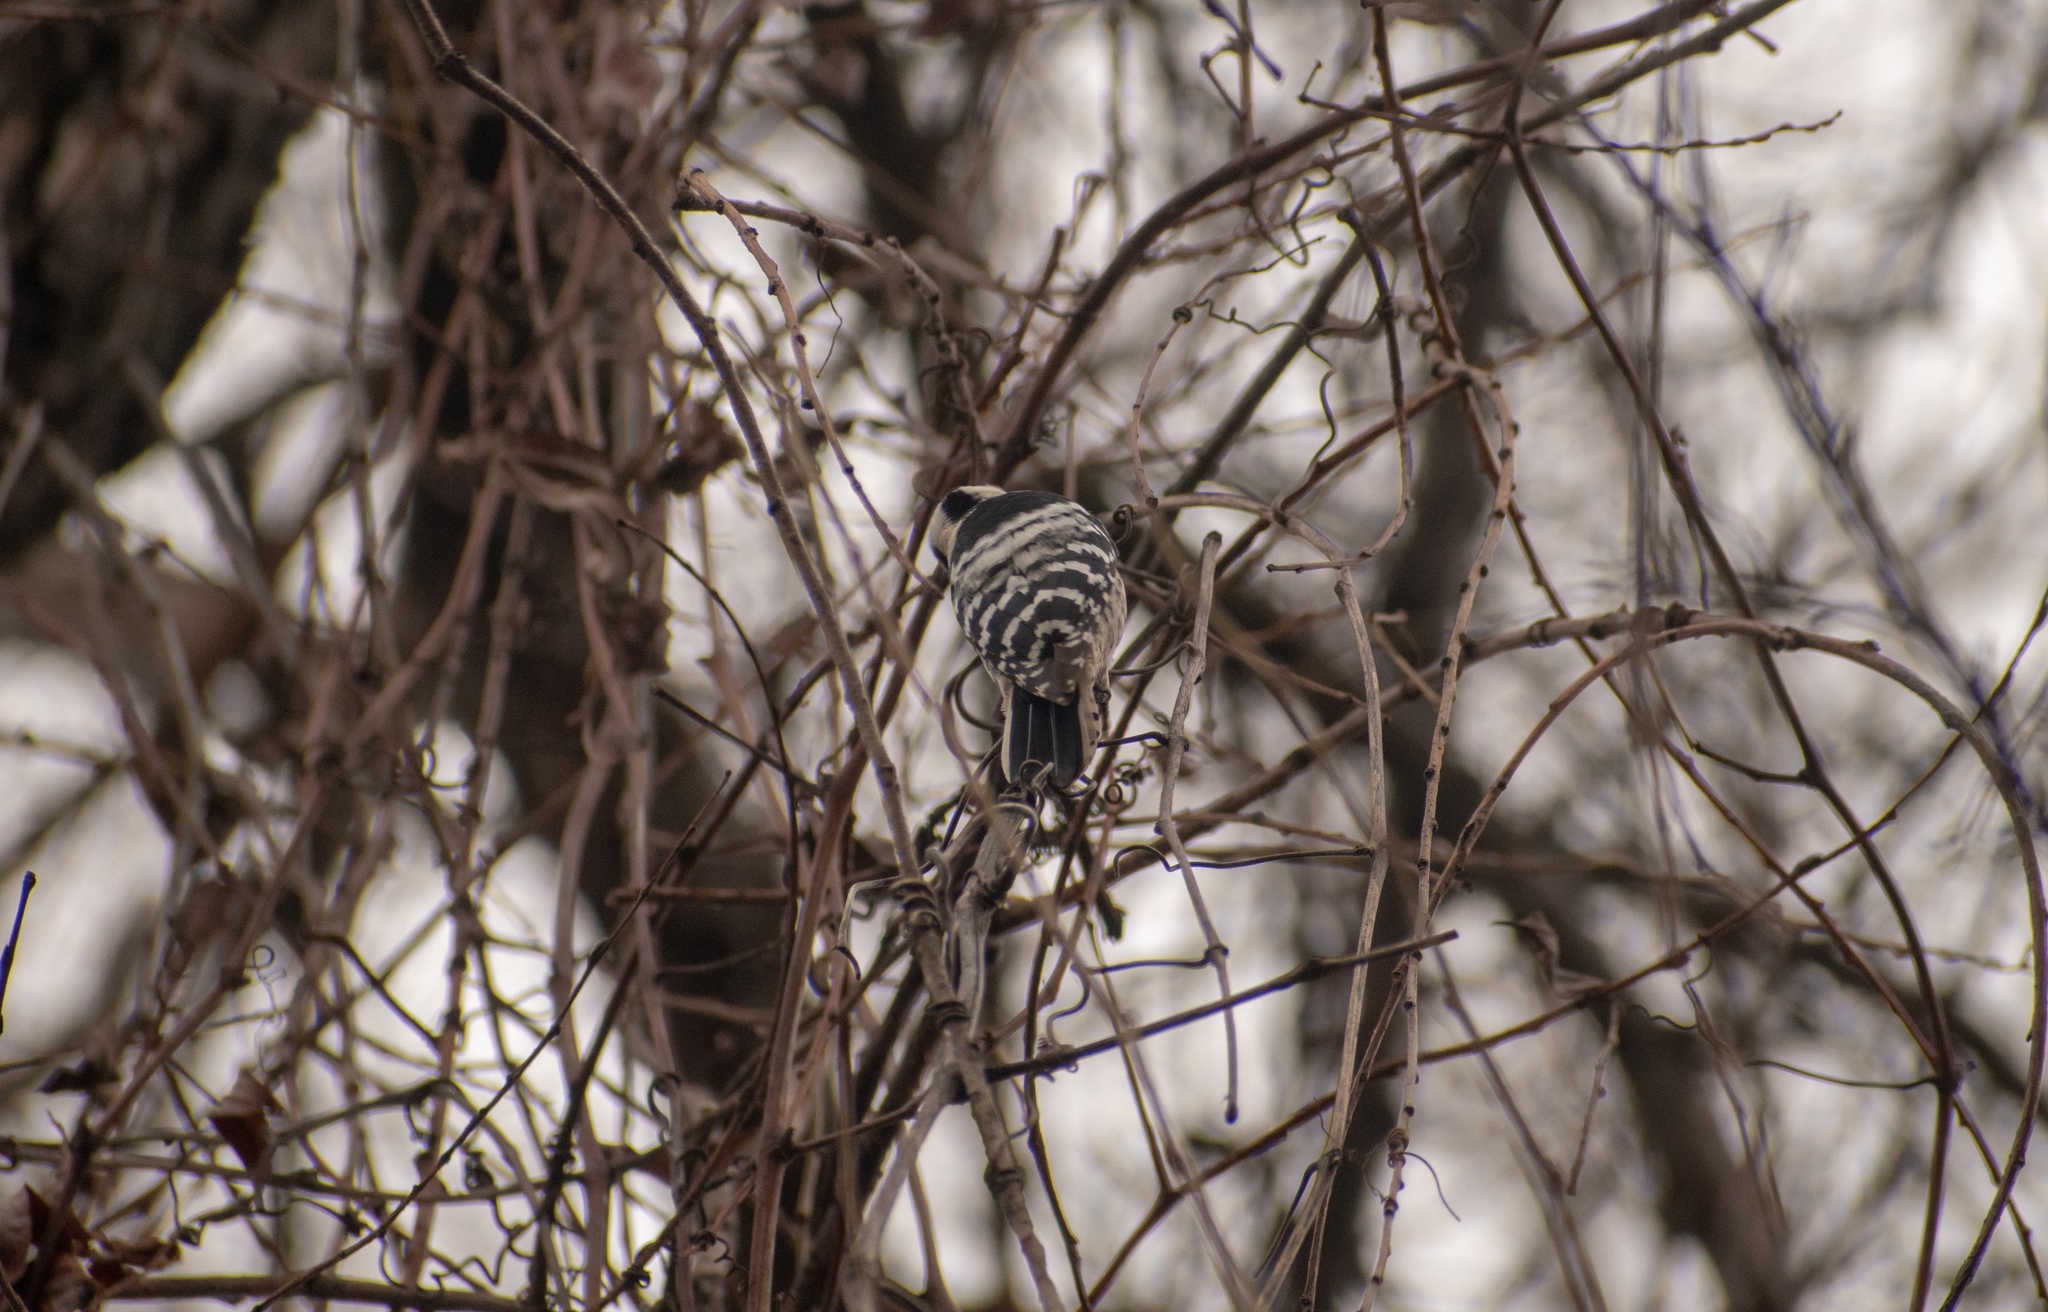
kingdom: Animalia
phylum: Chordata
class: Aves
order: Piciformes
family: Picidae
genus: Dryobates
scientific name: Dryobates minor
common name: Lesser spotted woodpecker
